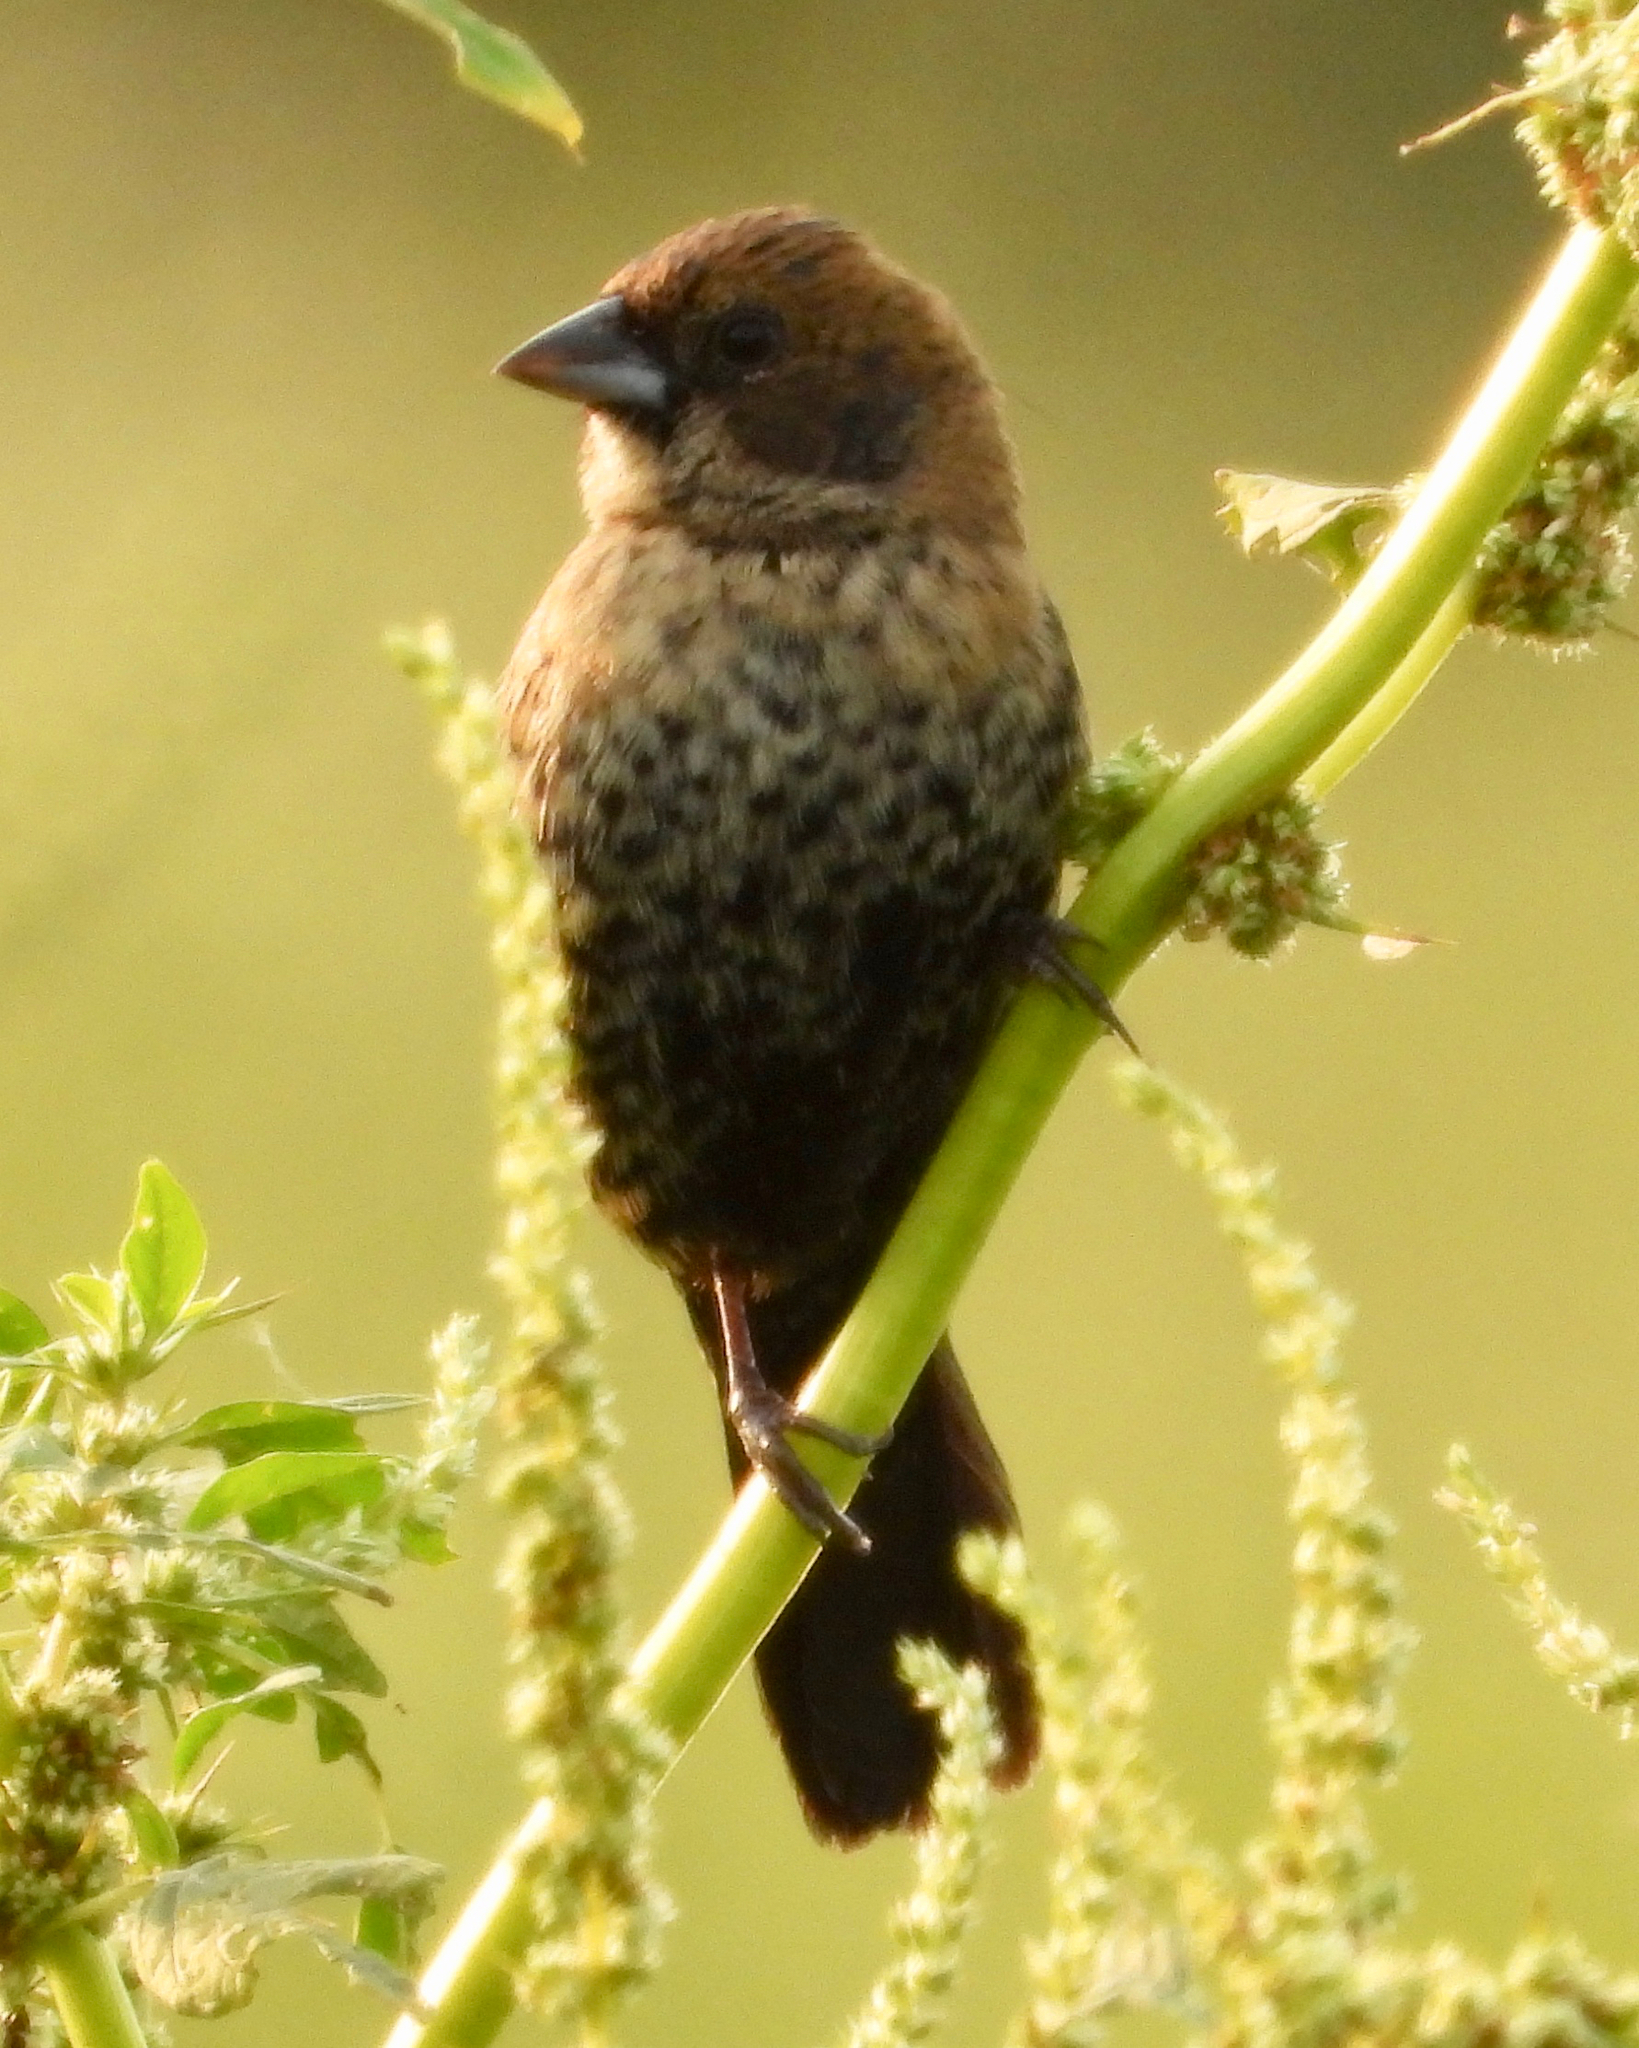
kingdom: Animalia
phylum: Chordata
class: Aves
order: Passeriformes
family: Thraupidae
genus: Volatinia
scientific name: Volatinia jacarina
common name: Blue-black grassquit
